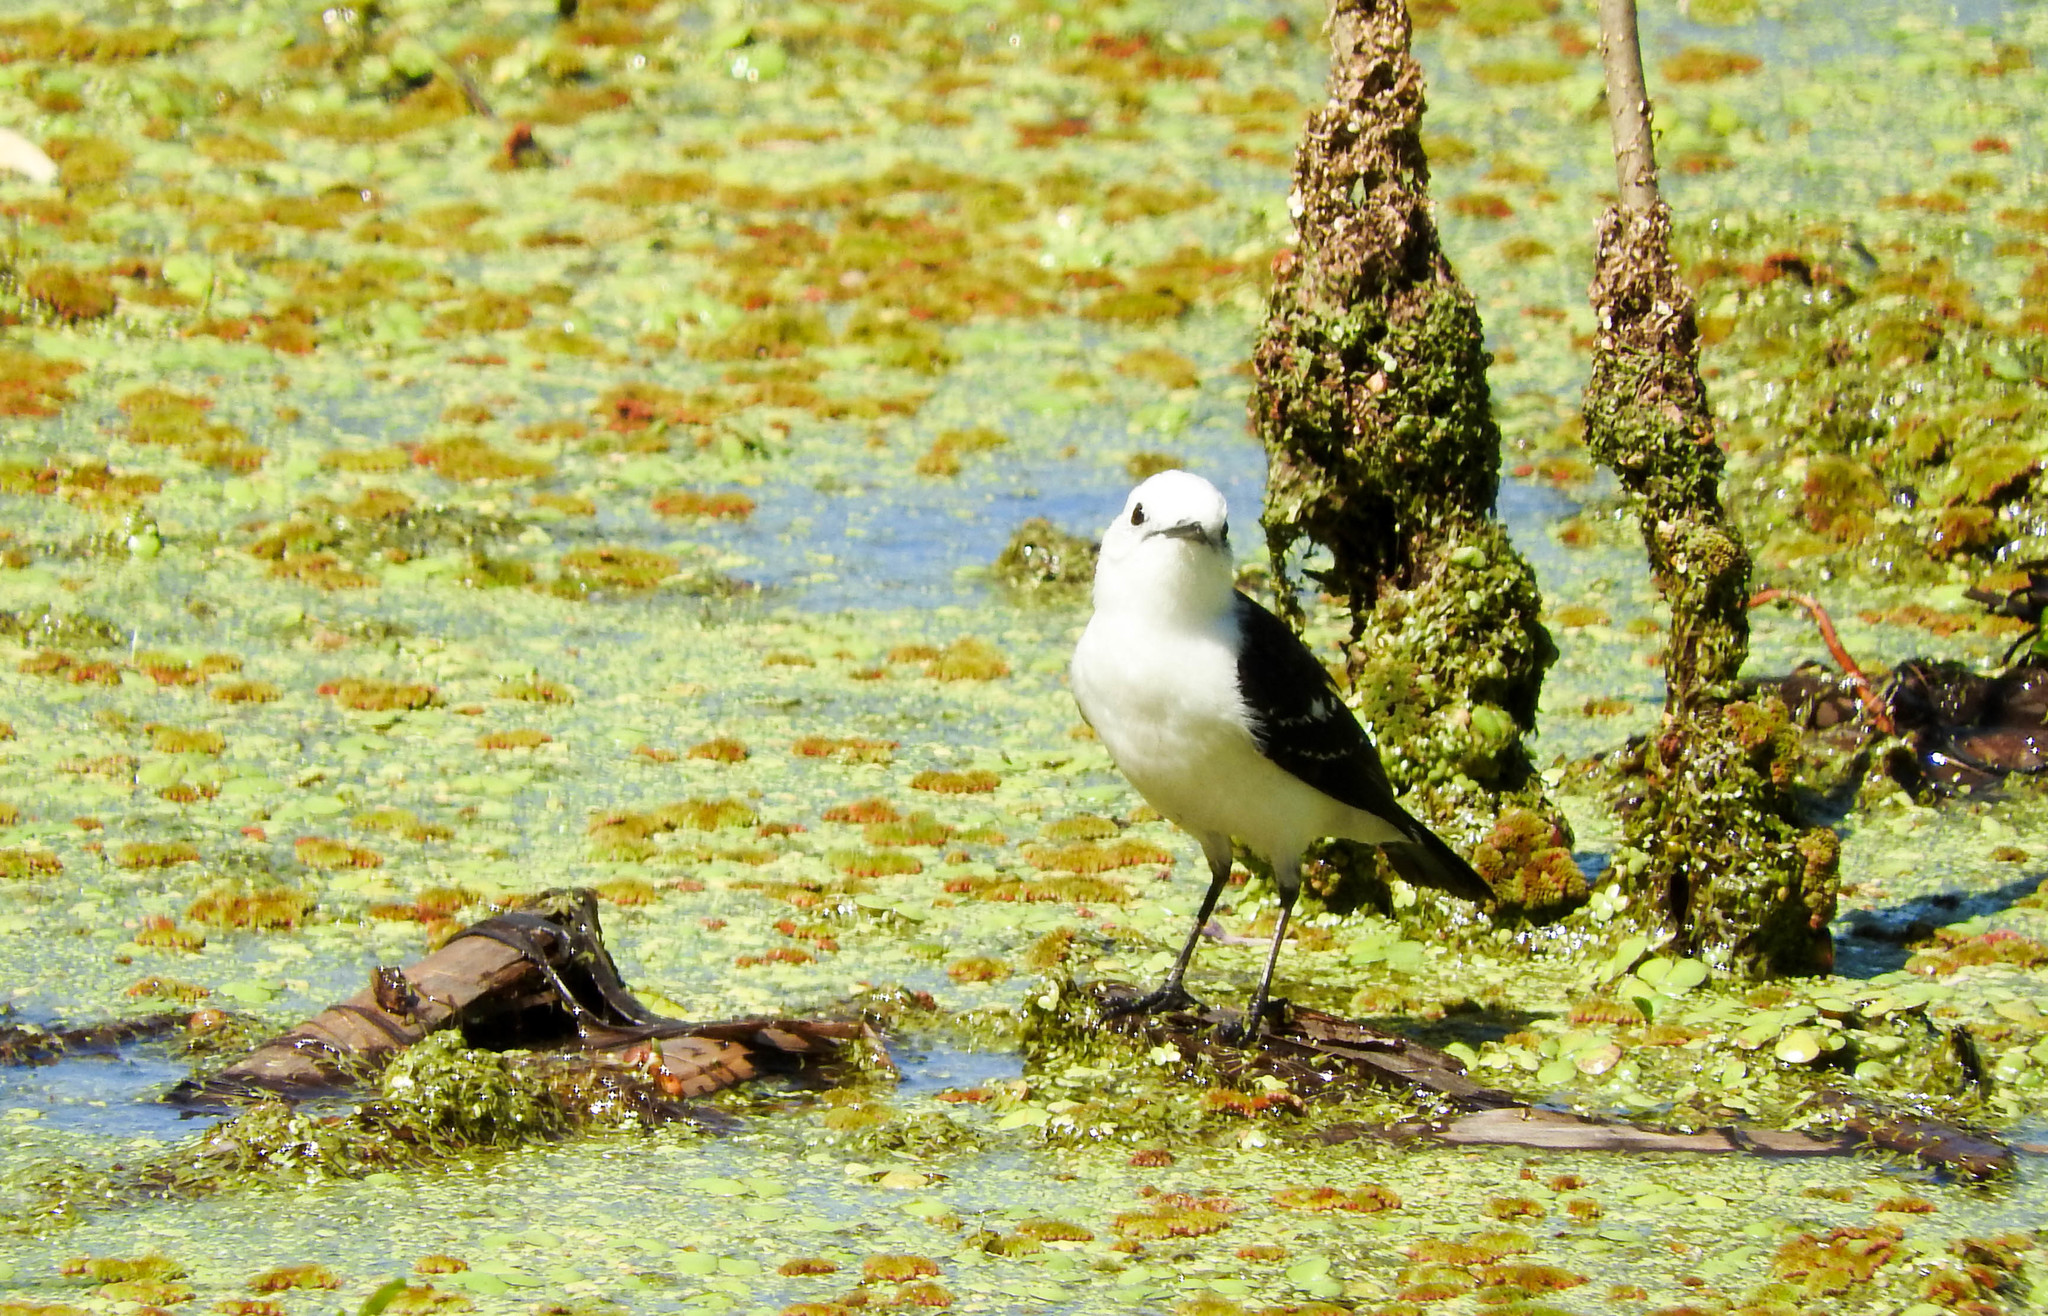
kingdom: Animalia
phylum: Chordata
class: Aves
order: Passeriformes
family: Tyrannidae
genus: Fluvicola
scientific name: Fluvicola pica
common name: Pied water-tyrant
